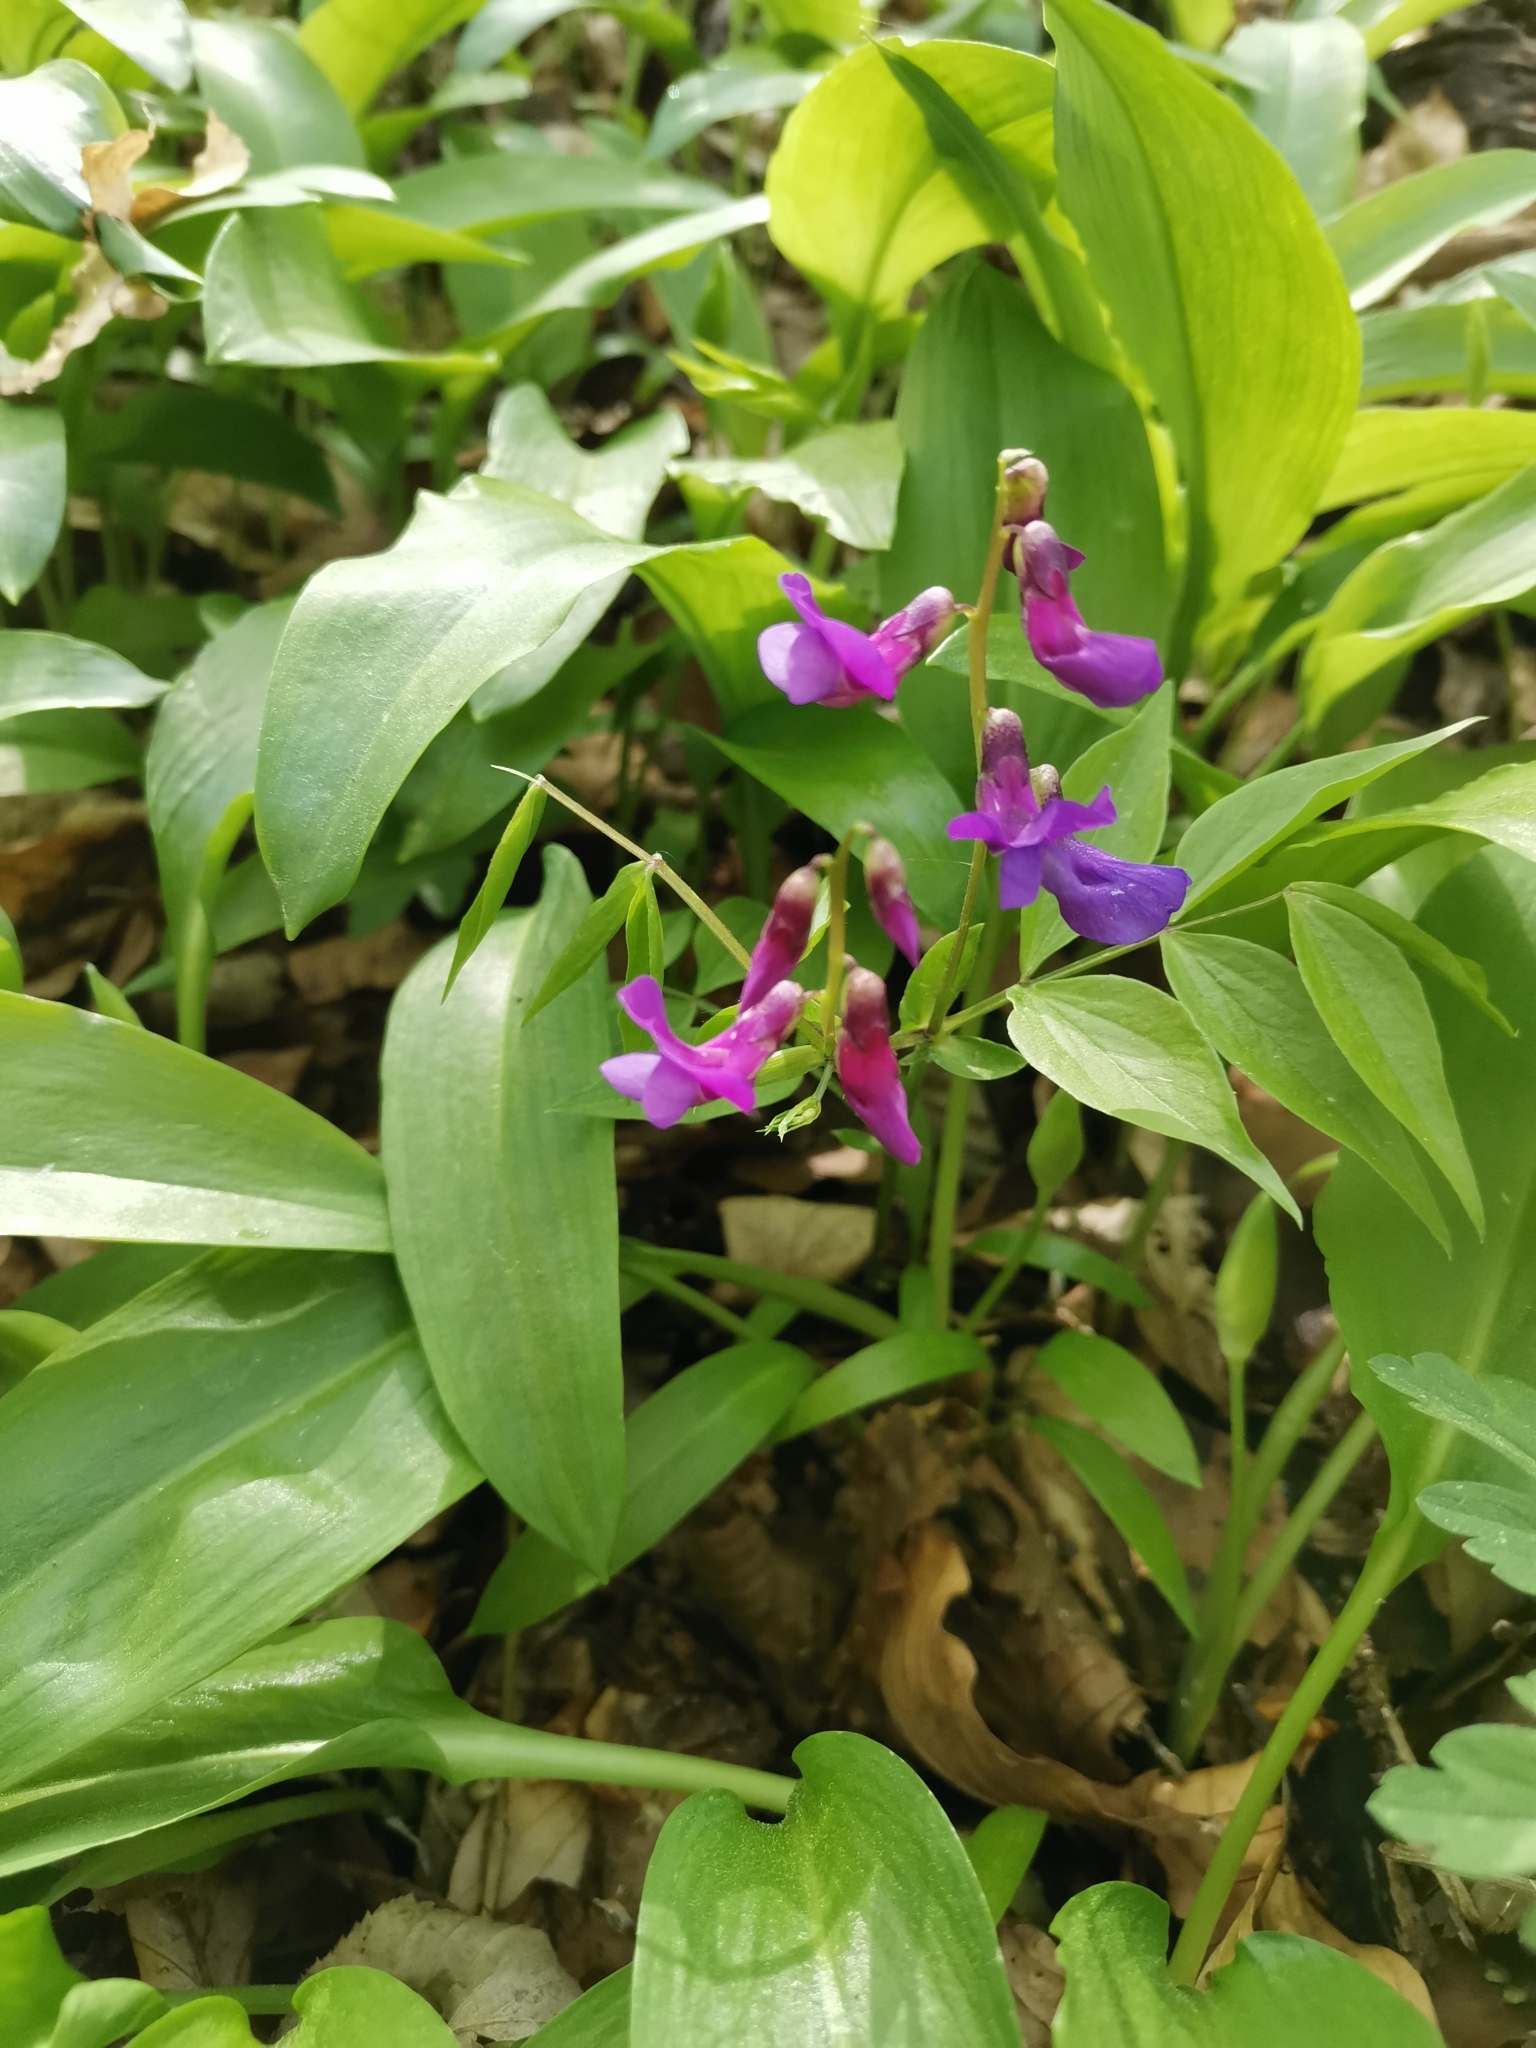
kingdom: Plantae
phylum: Tracheophyta
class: Magnoliopsida
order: Fabales
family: Fabaceae
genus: Lathyrus
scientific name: Lathyrus vernus
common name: Spring pea
